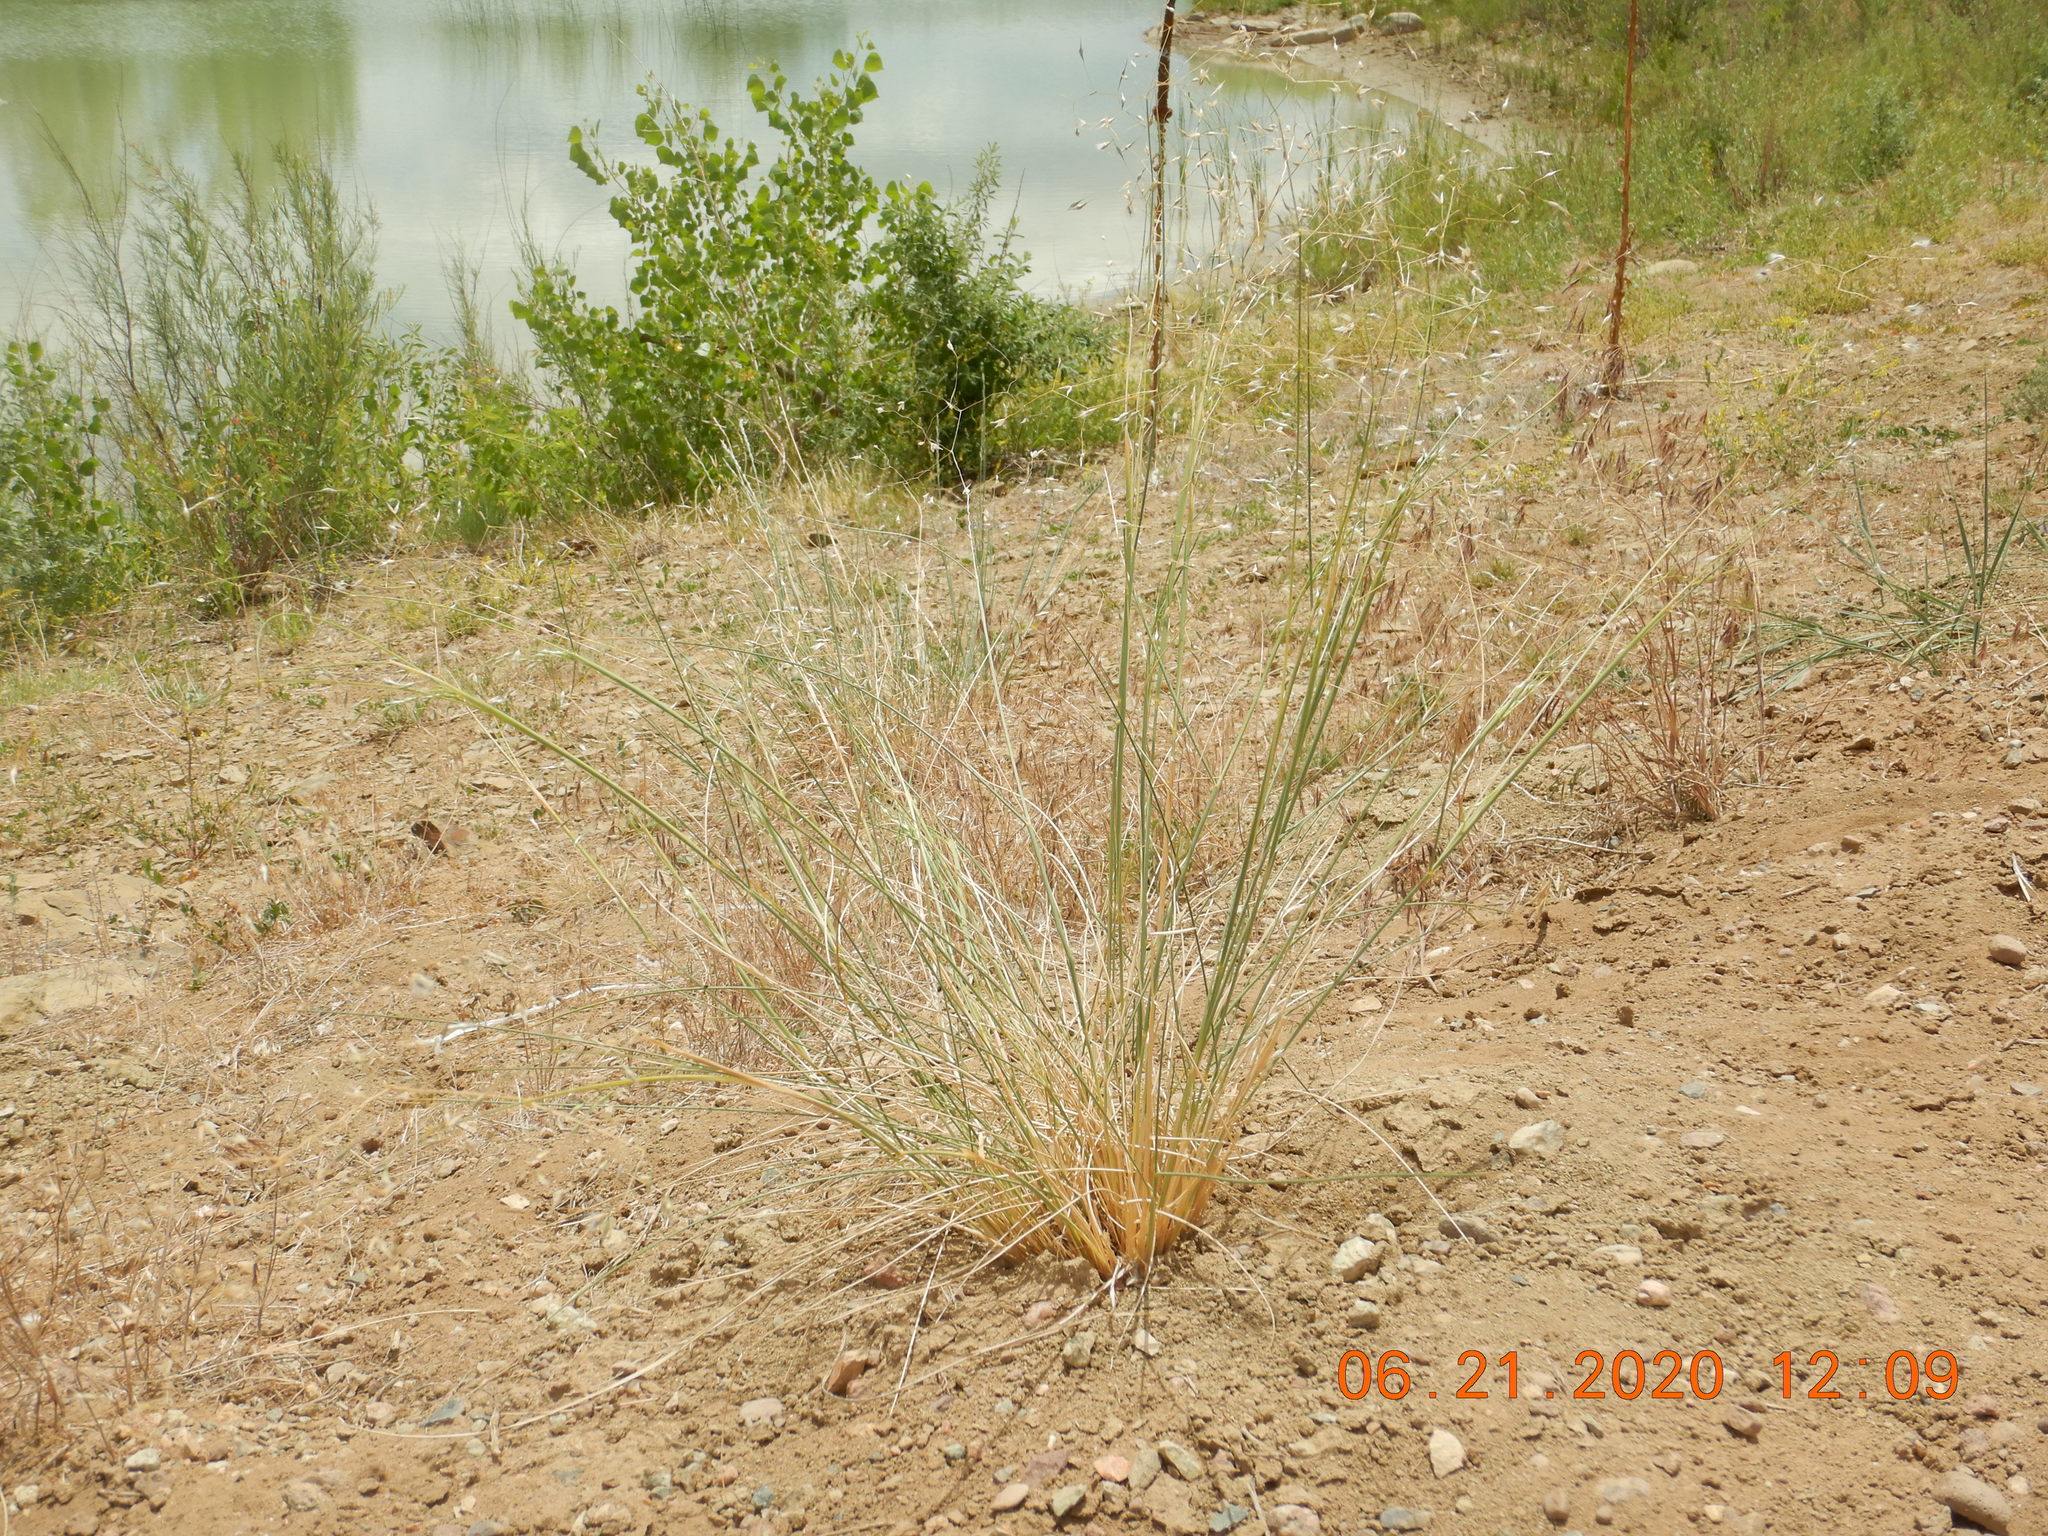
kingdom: Plantae
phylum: Tracheophyta
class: Liliopsida
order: Poales
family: Poaceae
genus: Eriocoma
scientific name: Eriocoma hymenoides
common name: Indian mountain ricegrass
